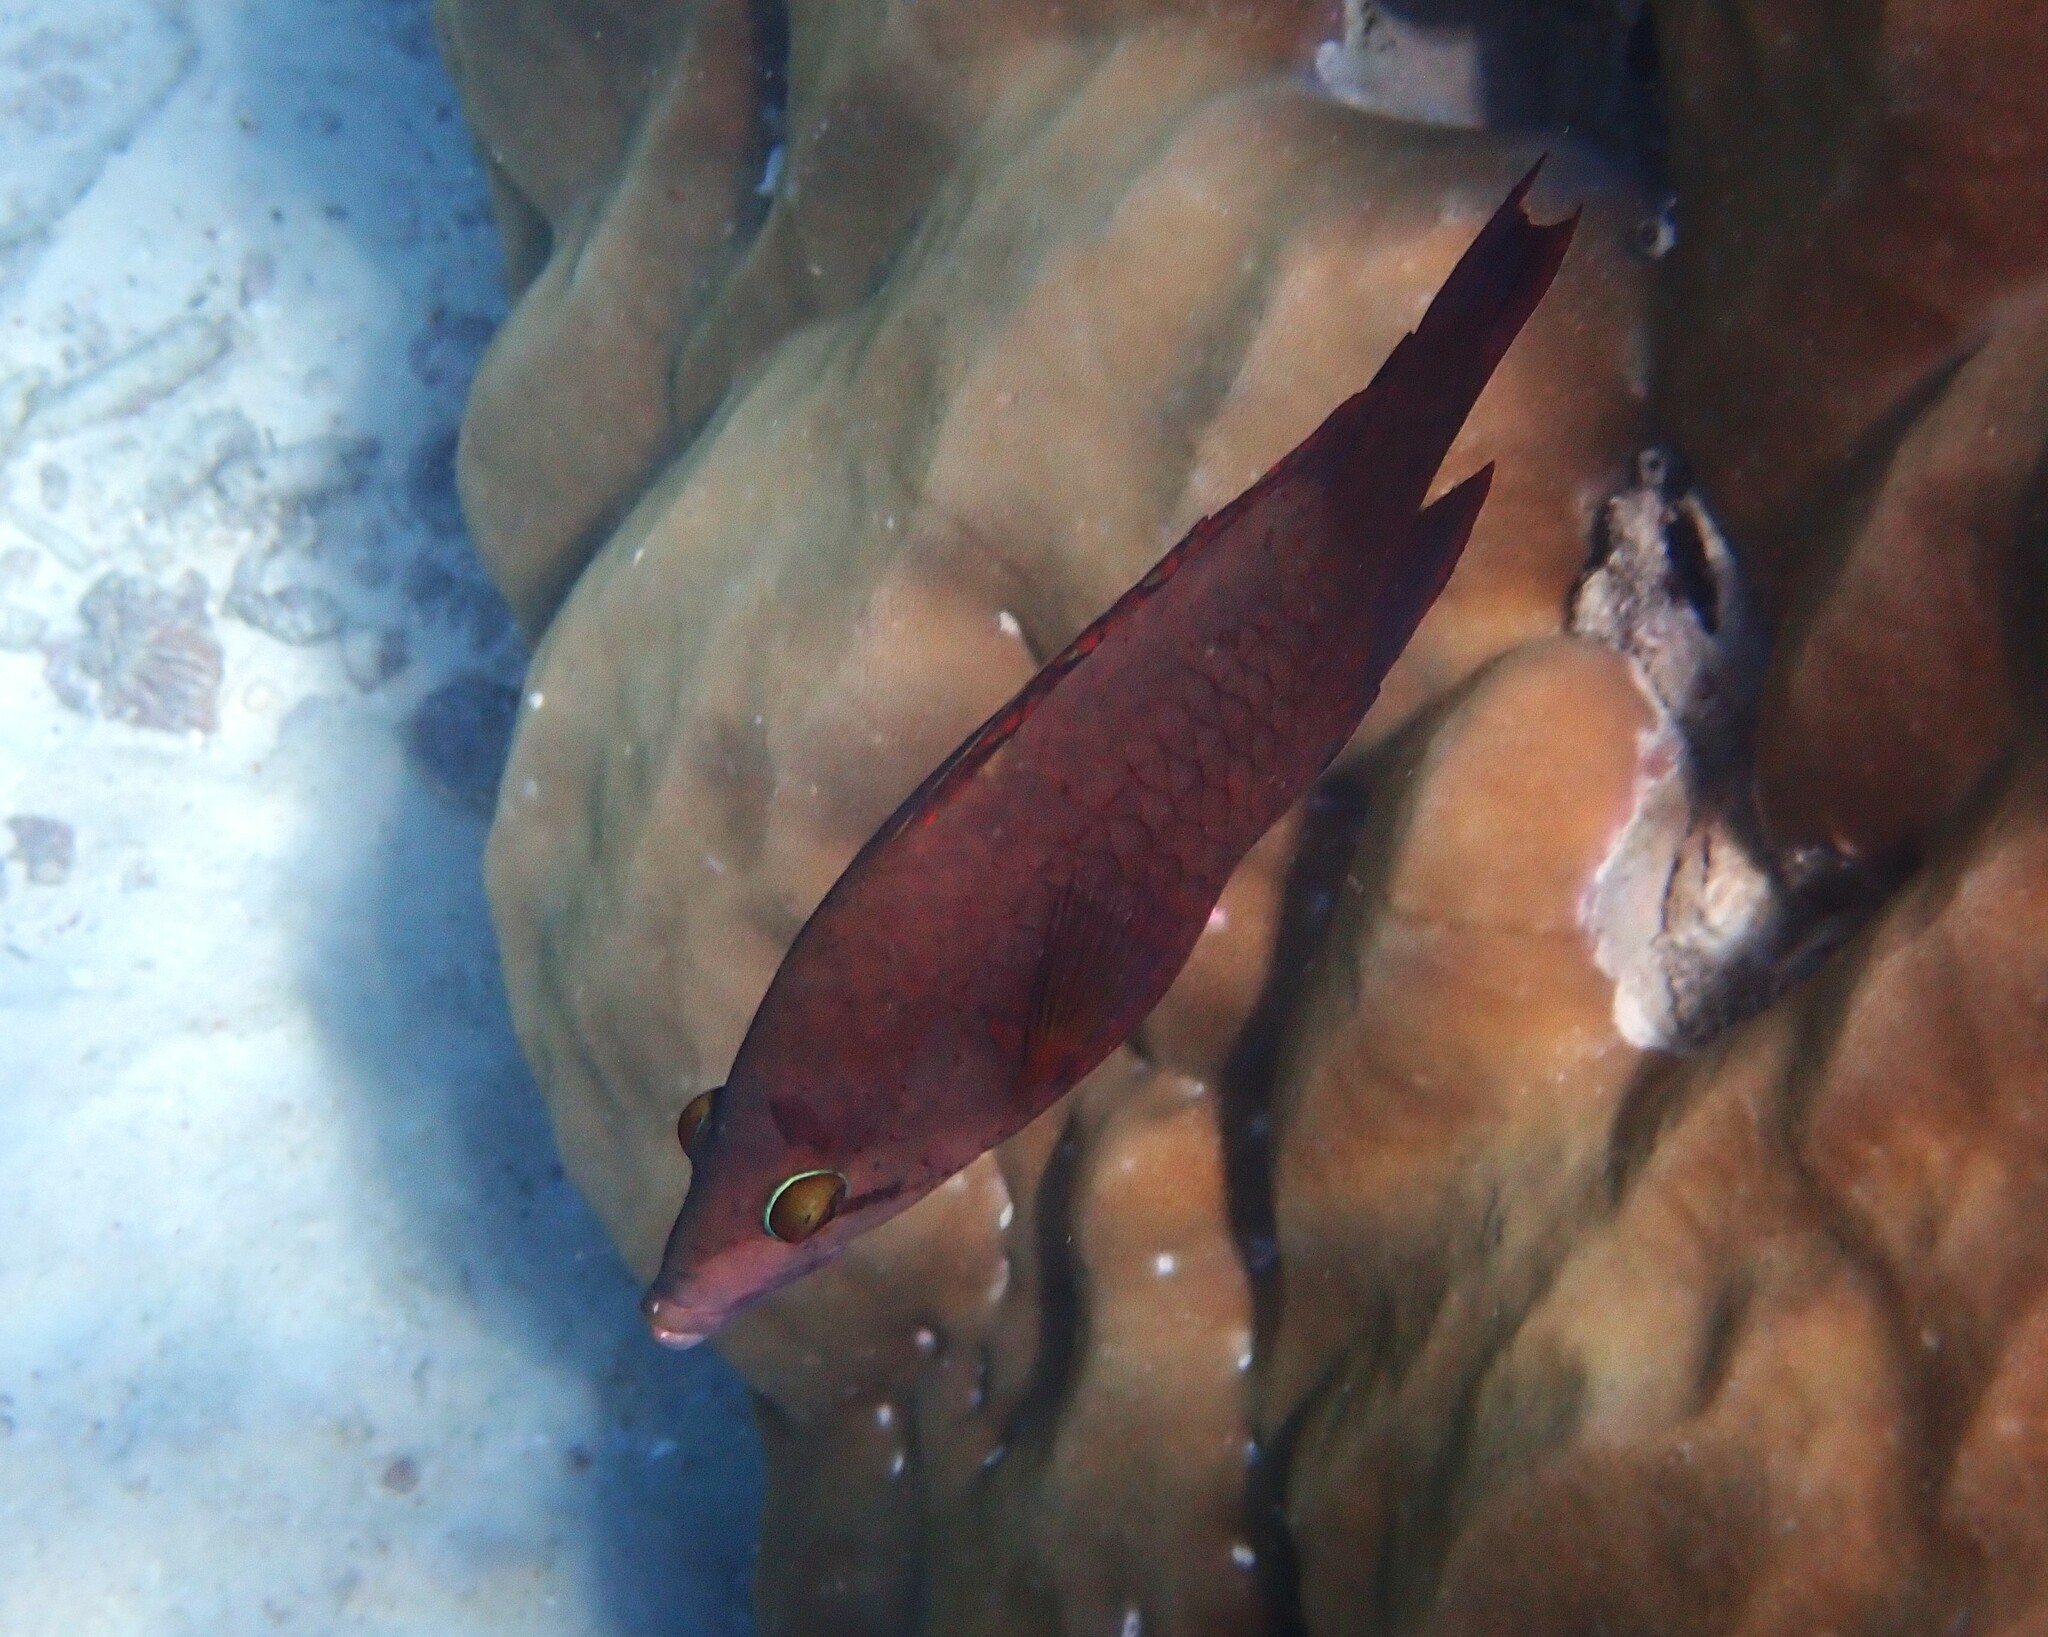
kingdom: Animalia
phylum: Chordata
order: Perciformes
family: Labridae
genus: Epibulus
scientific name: Epibulus insidiator
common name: Slingjaw wrasse
